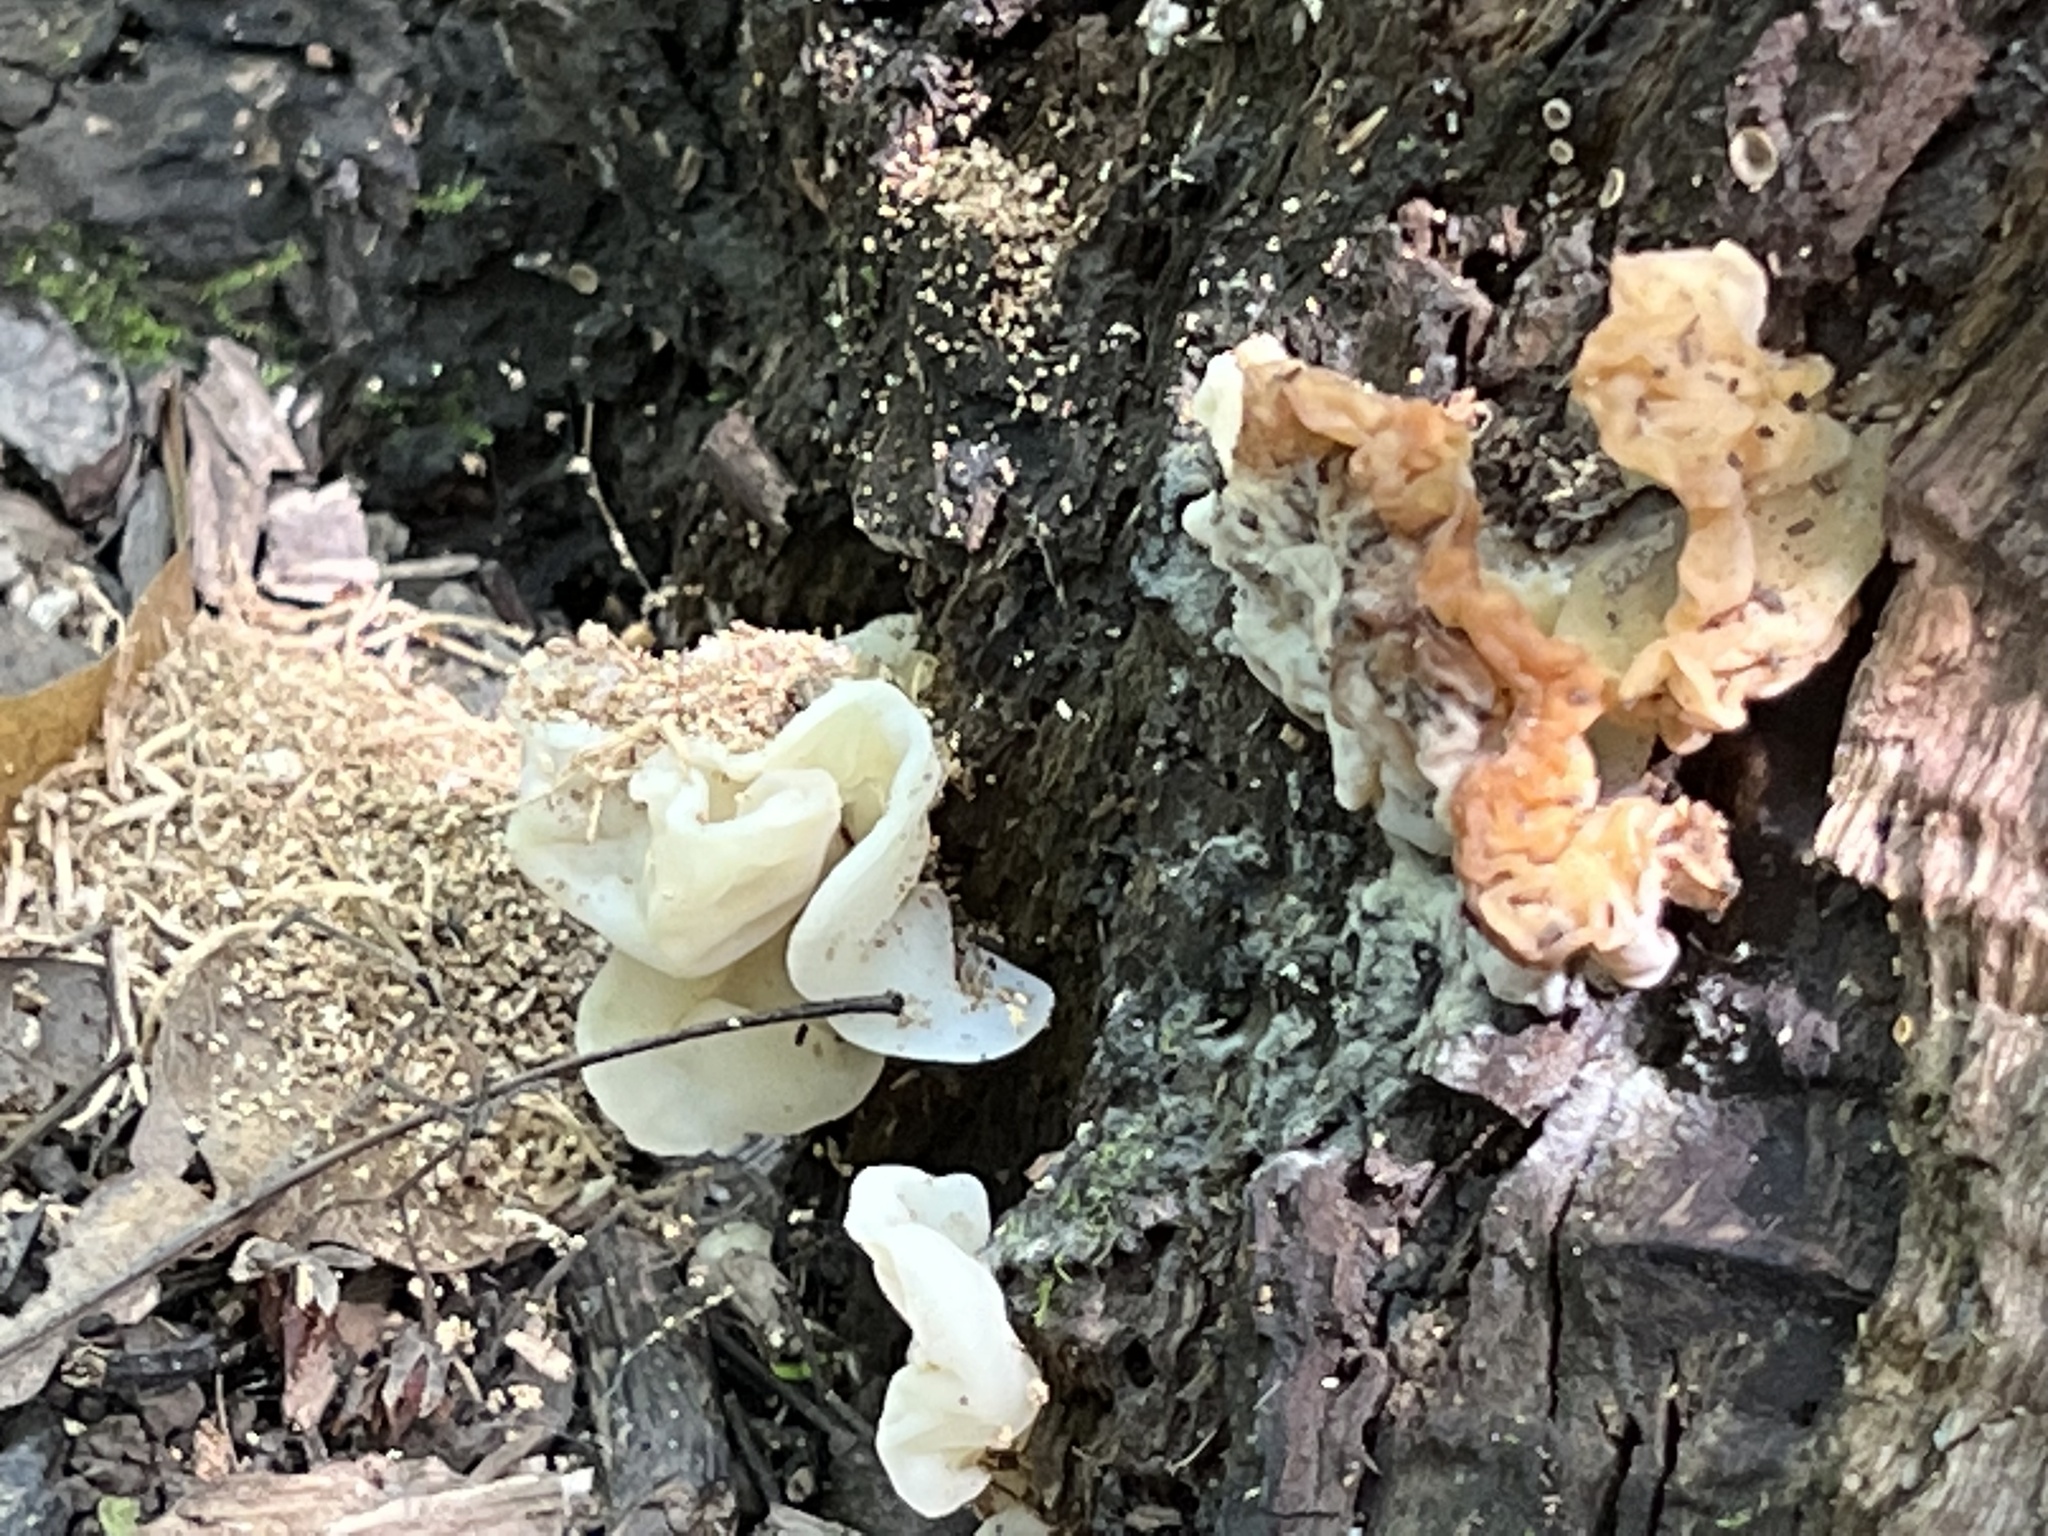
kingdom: Fungi
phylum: Basidiomycota
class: Agaricomycetes
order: Auriculariales
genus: Ductifera
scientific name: Ductifera pululahuana
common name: White jelly fungus
